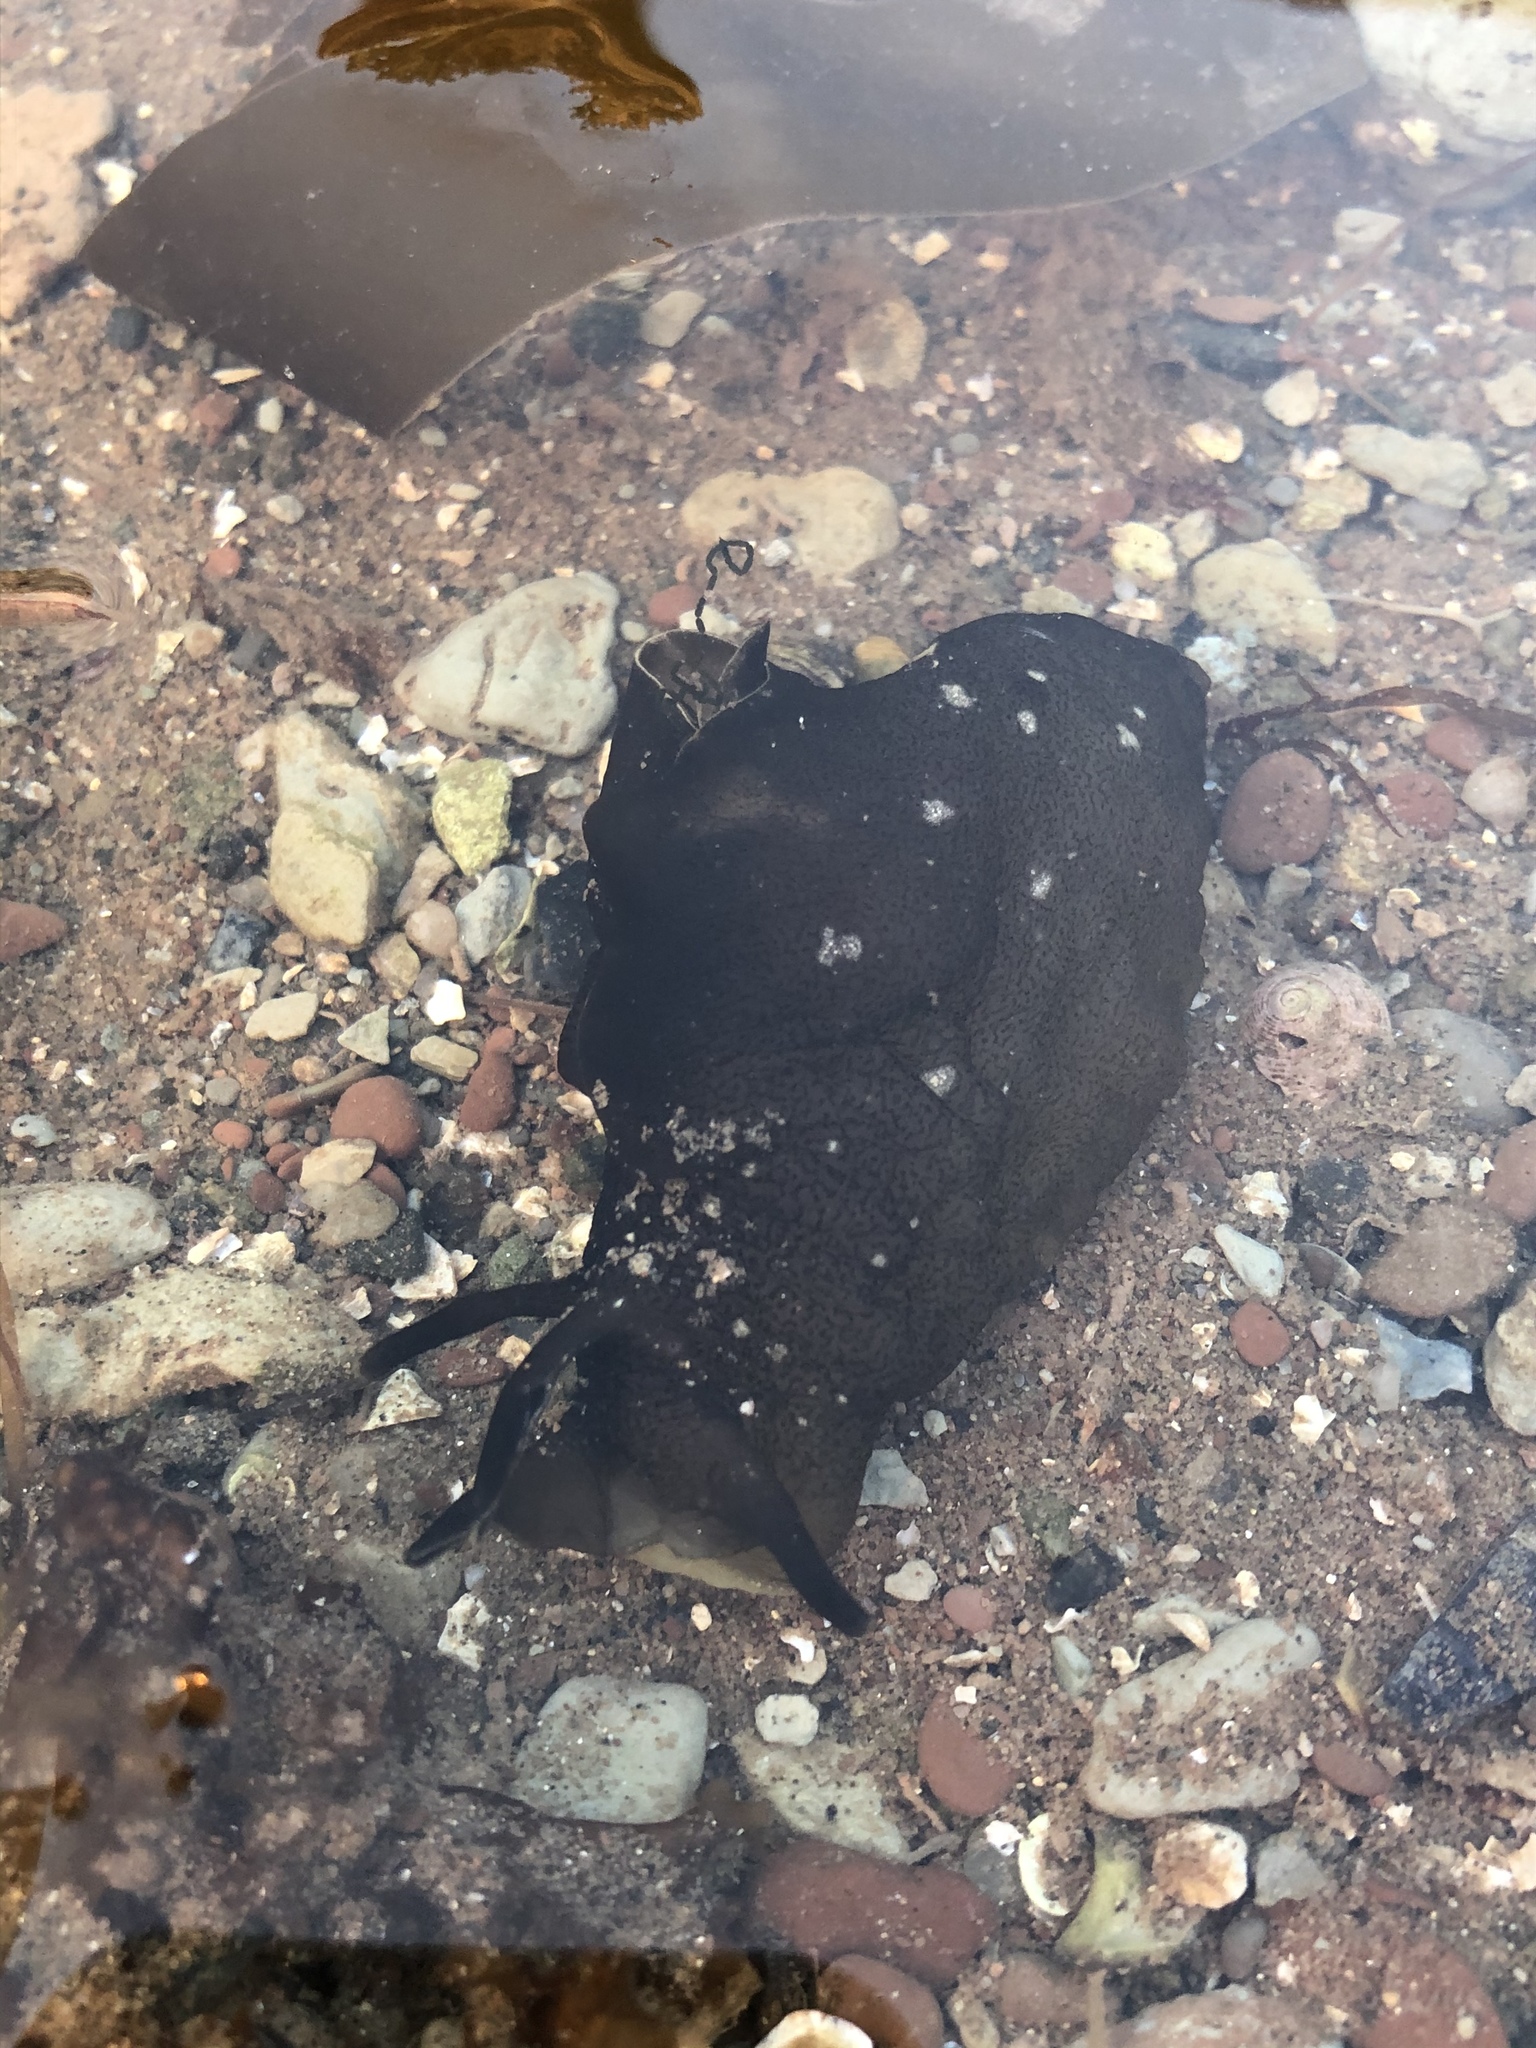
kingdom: Animalia
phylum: Mollusca
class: Gastropoda
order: Aplysiida
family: Aplysiidae
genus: Aplysia
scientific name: Aplysia punctata
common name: Common sea hare
